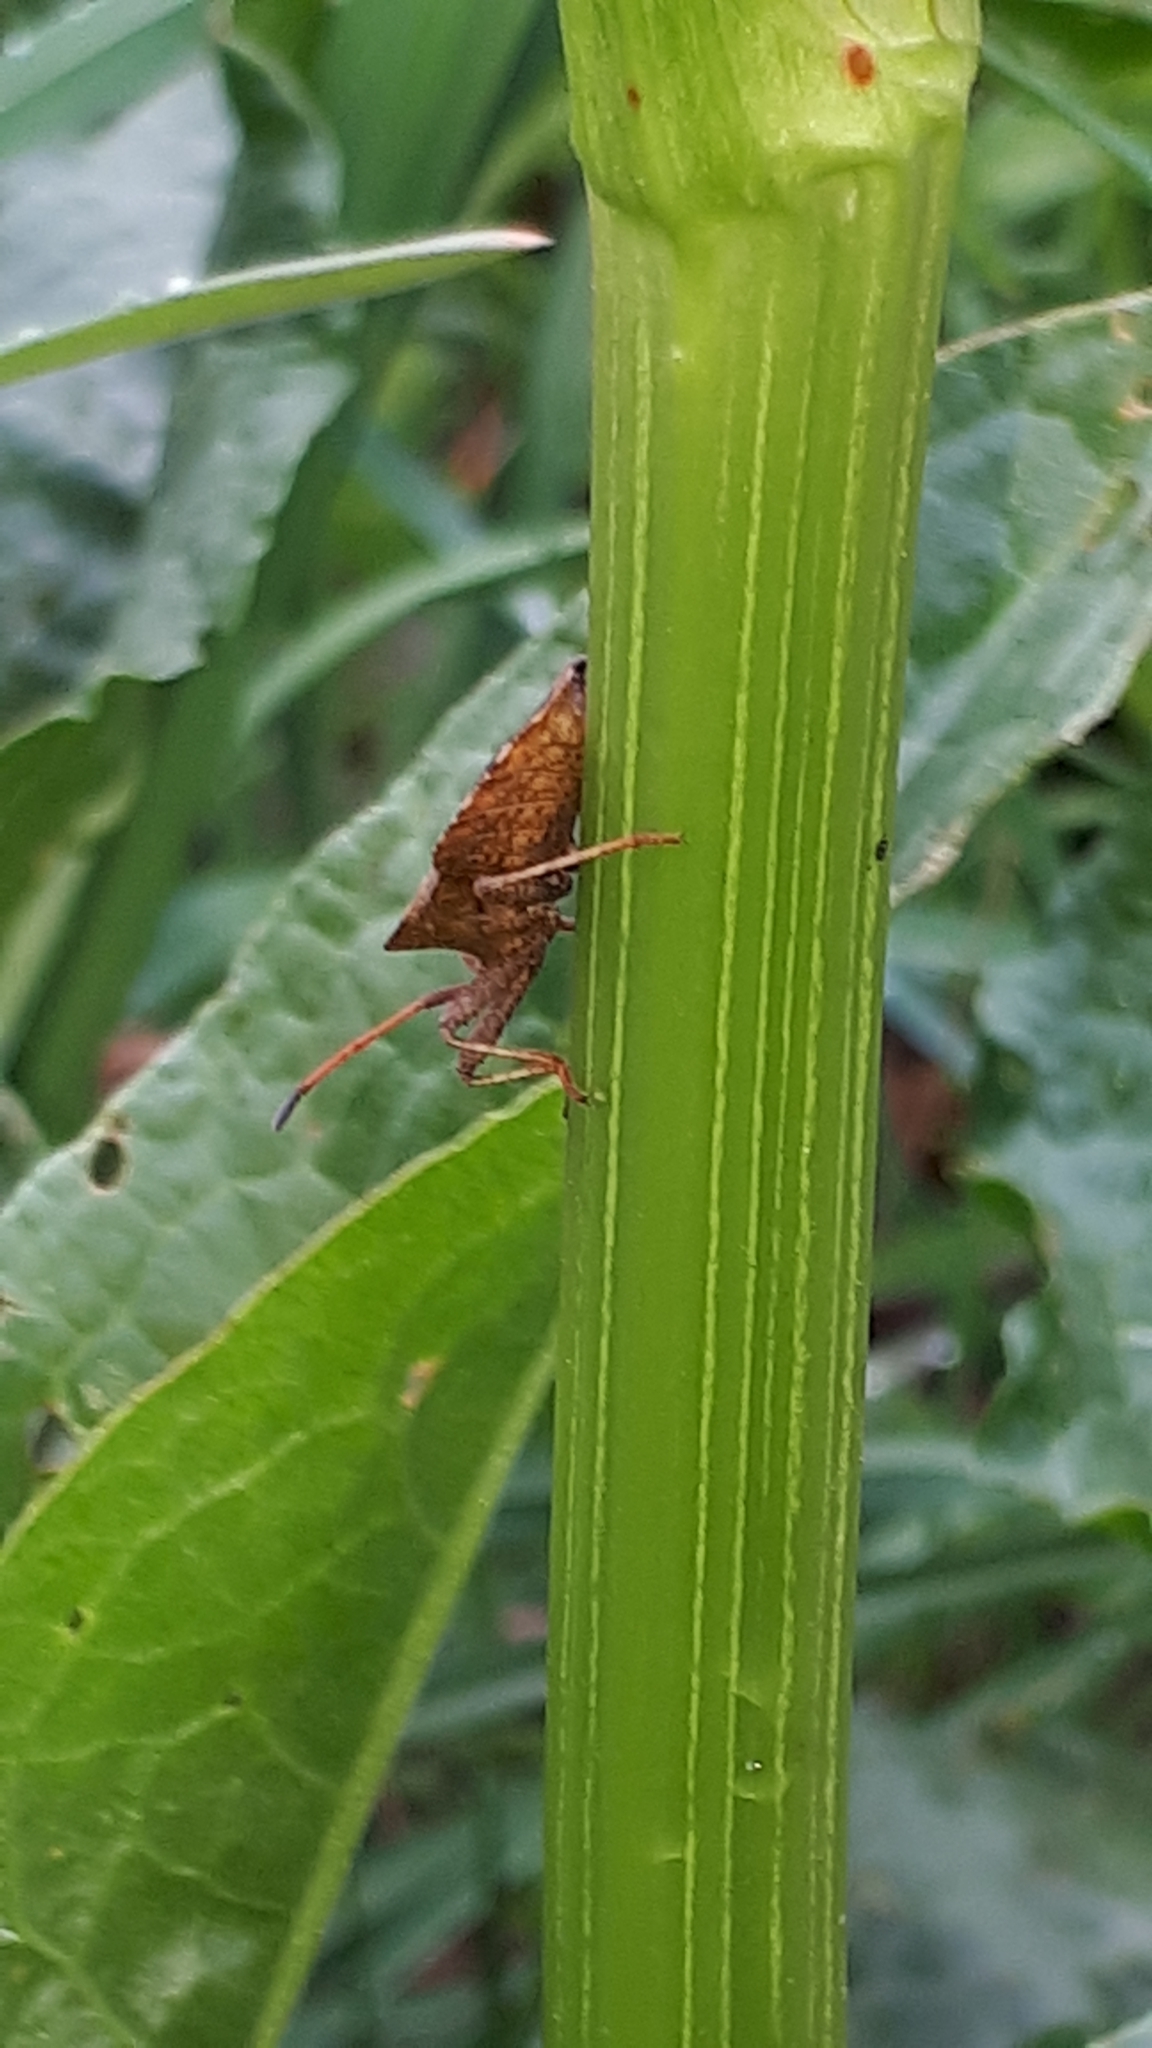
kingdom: Animalia
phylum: Arthropoda
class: Insecta
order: Hemiptera
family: Coreidae
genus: Coreus
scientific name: Coreus marginatus
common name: Dock bug
